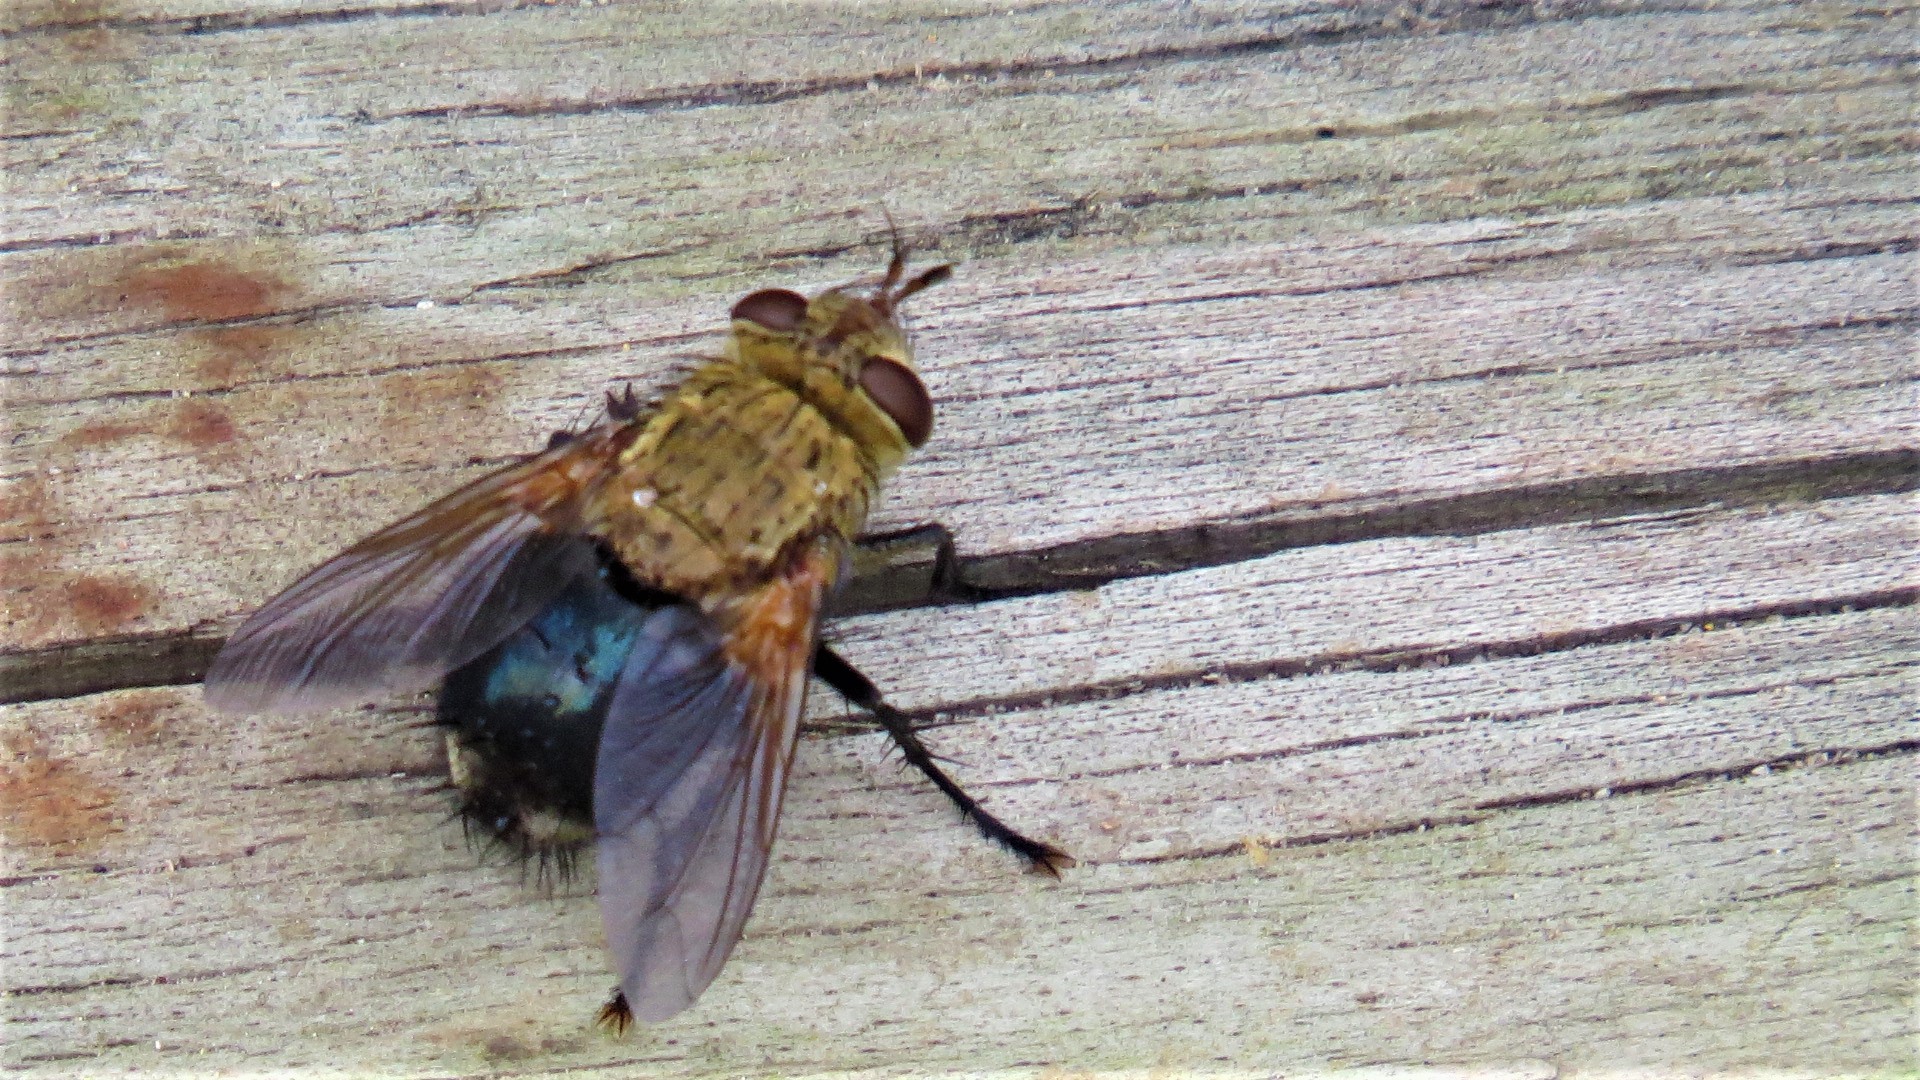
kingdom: Animalia
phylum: Arthropoda
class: Insecta
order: Diptera
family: Tachinidae
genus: Archytas
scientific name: Archytas apicifer
